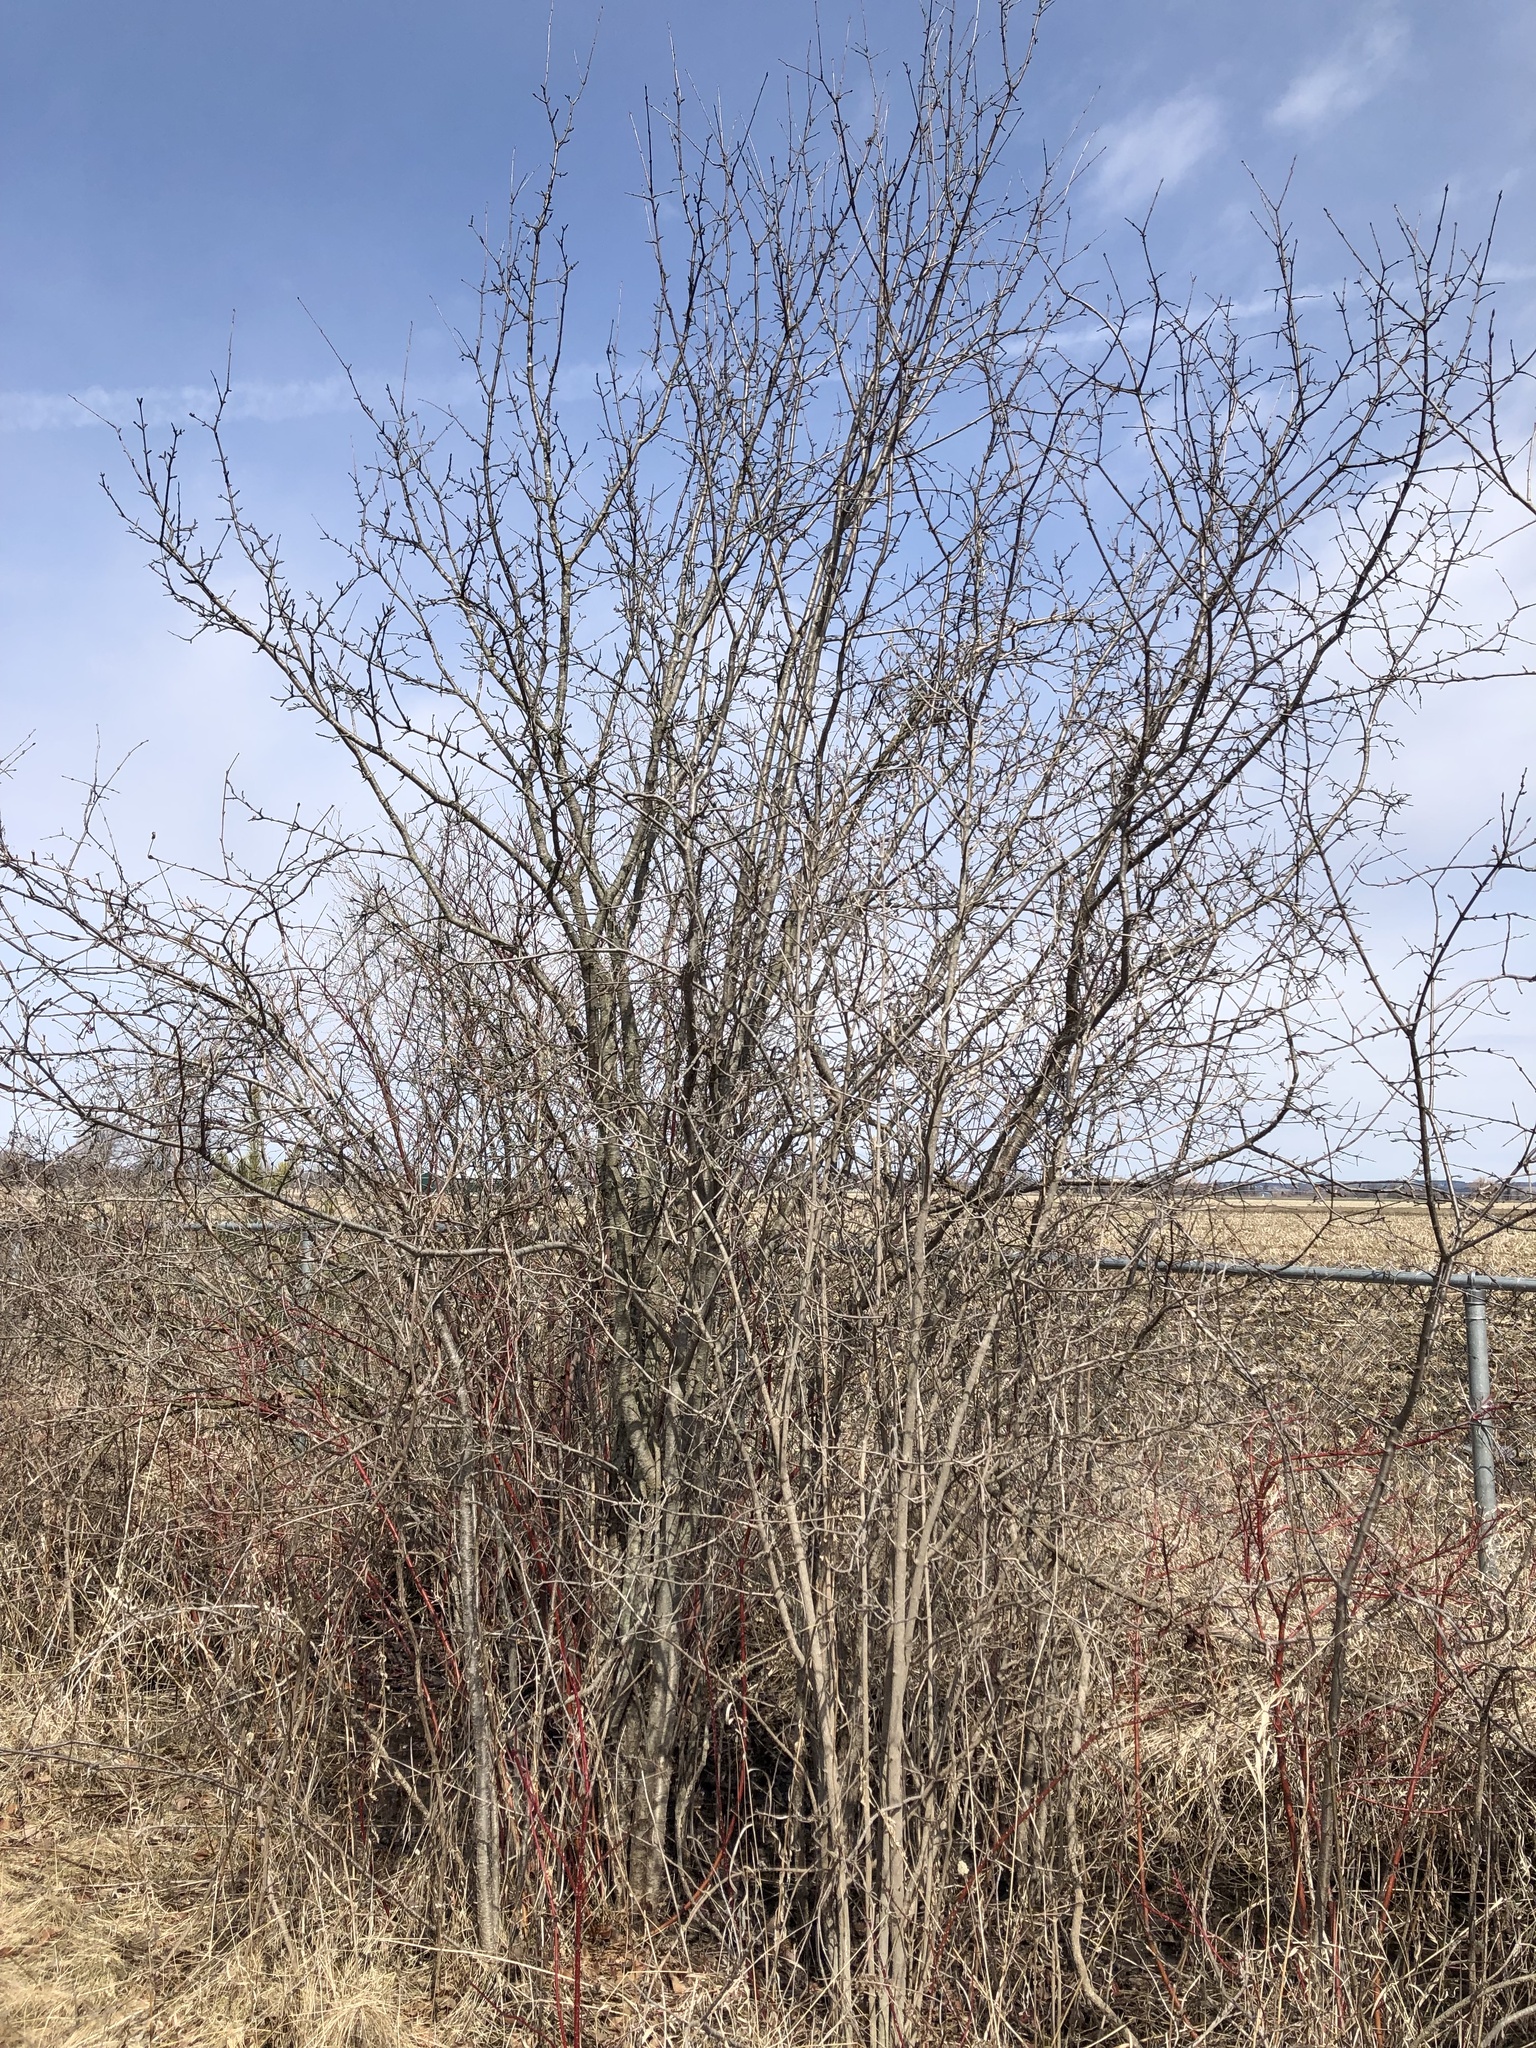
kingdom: Plantae
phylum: Tracheophyta
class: Magnoliopsida
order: Rosales
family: Rhamnaceae
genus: Rhamnus
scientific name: Rhamnus cathartica
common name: Common buckthorn
